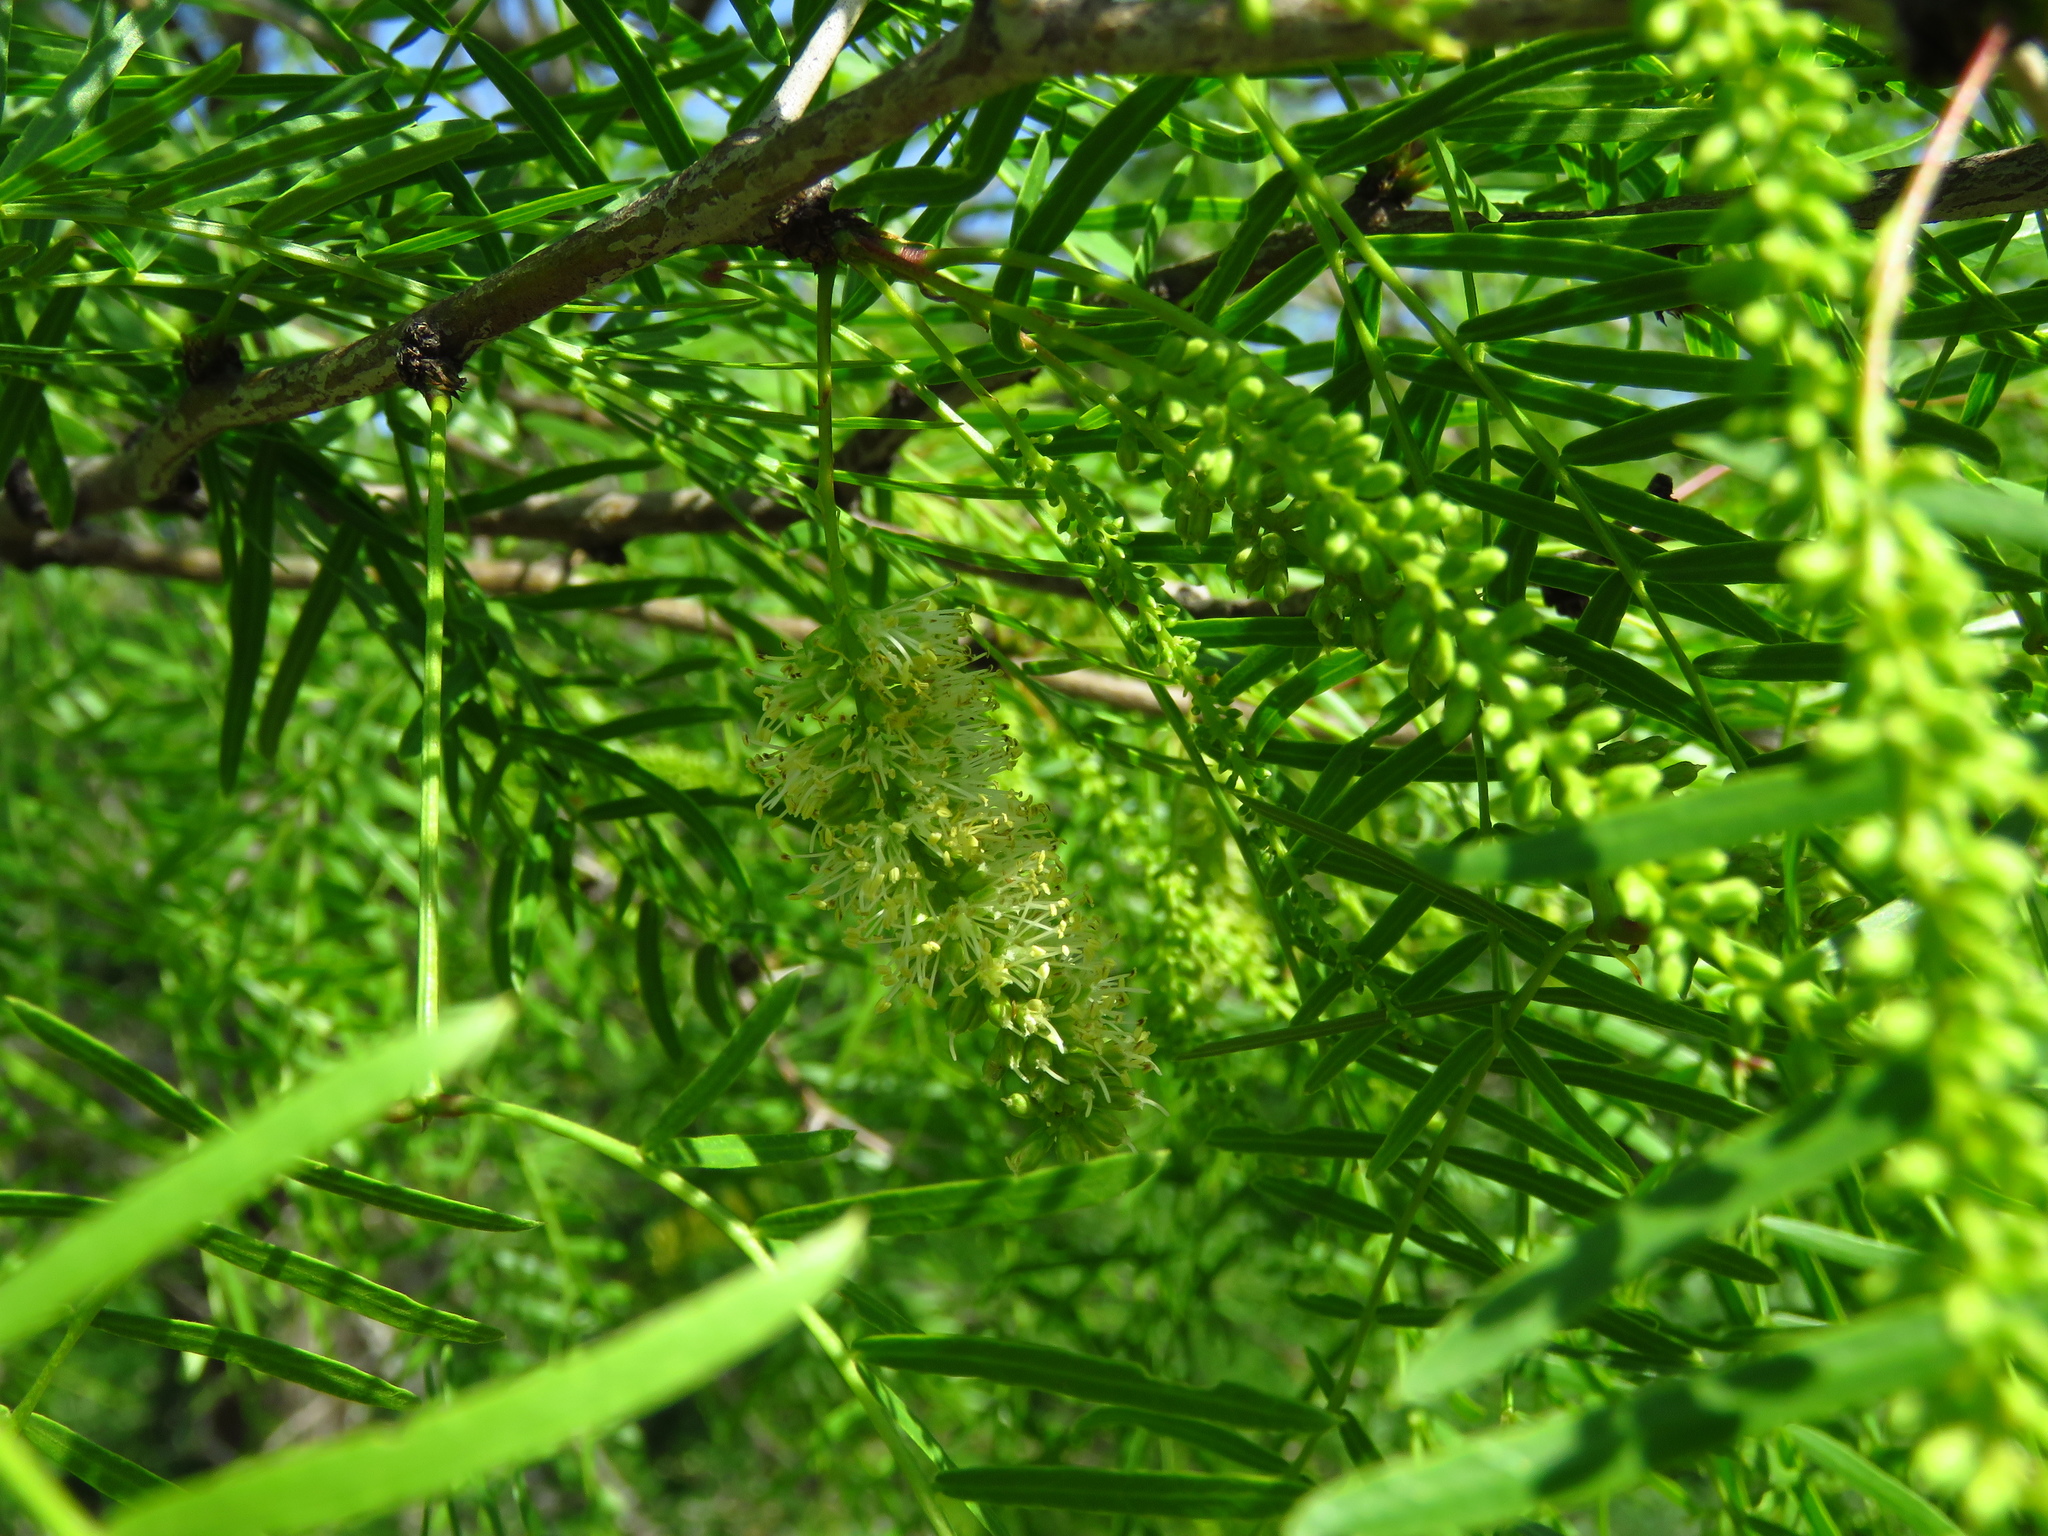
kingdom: Plantae
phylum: Tracheophyta
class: Magnoliopsida
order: Fabales
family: Fabaceae
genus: Prosopis
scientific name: Prosopis glandulosa
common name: Honey mesquite
